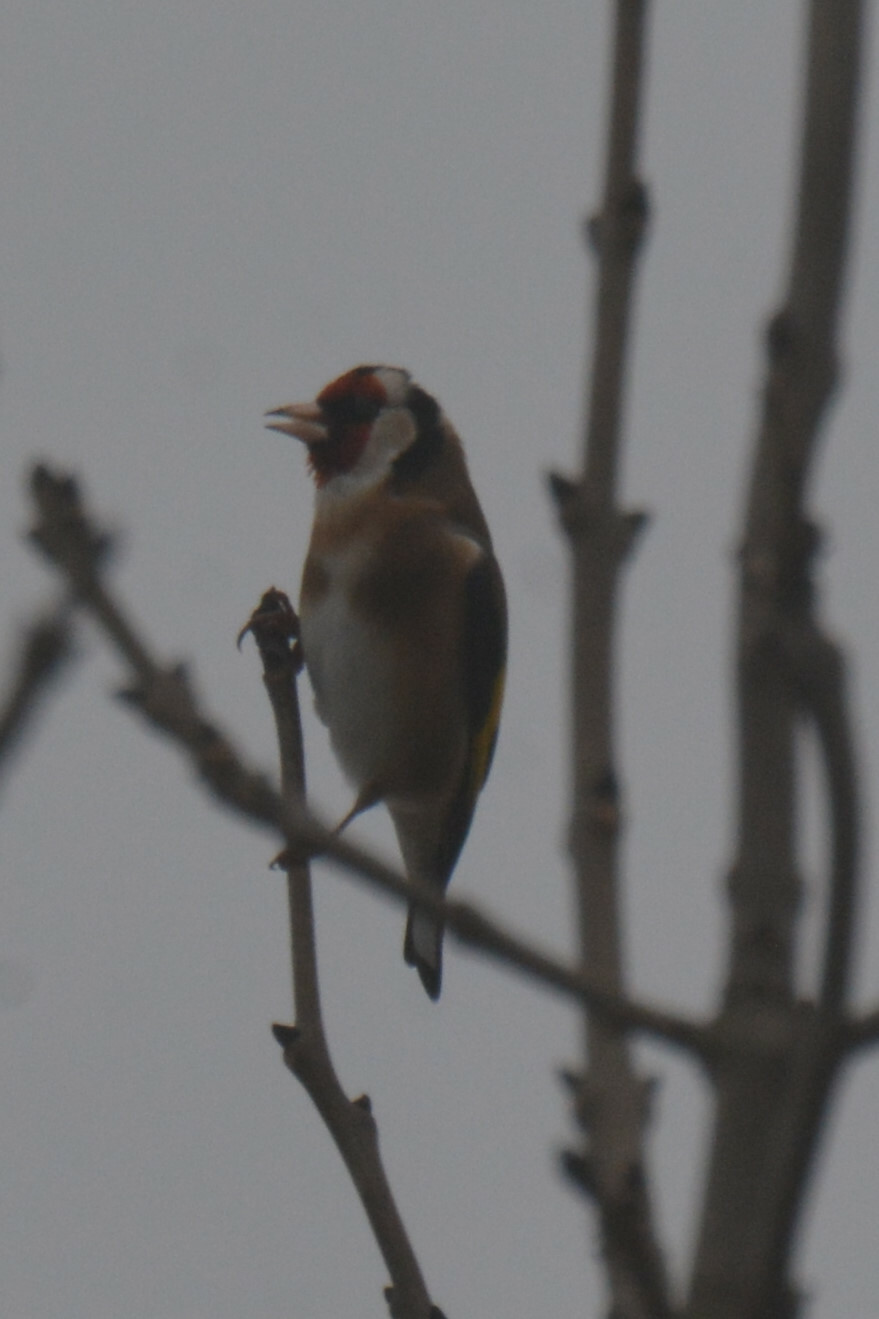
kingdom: Animalia
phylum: Chordata
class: Aves
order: Passeriformes
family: Fringillidae
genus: Carduelis
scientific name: Carduelis carduelis
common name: European goldfinch
